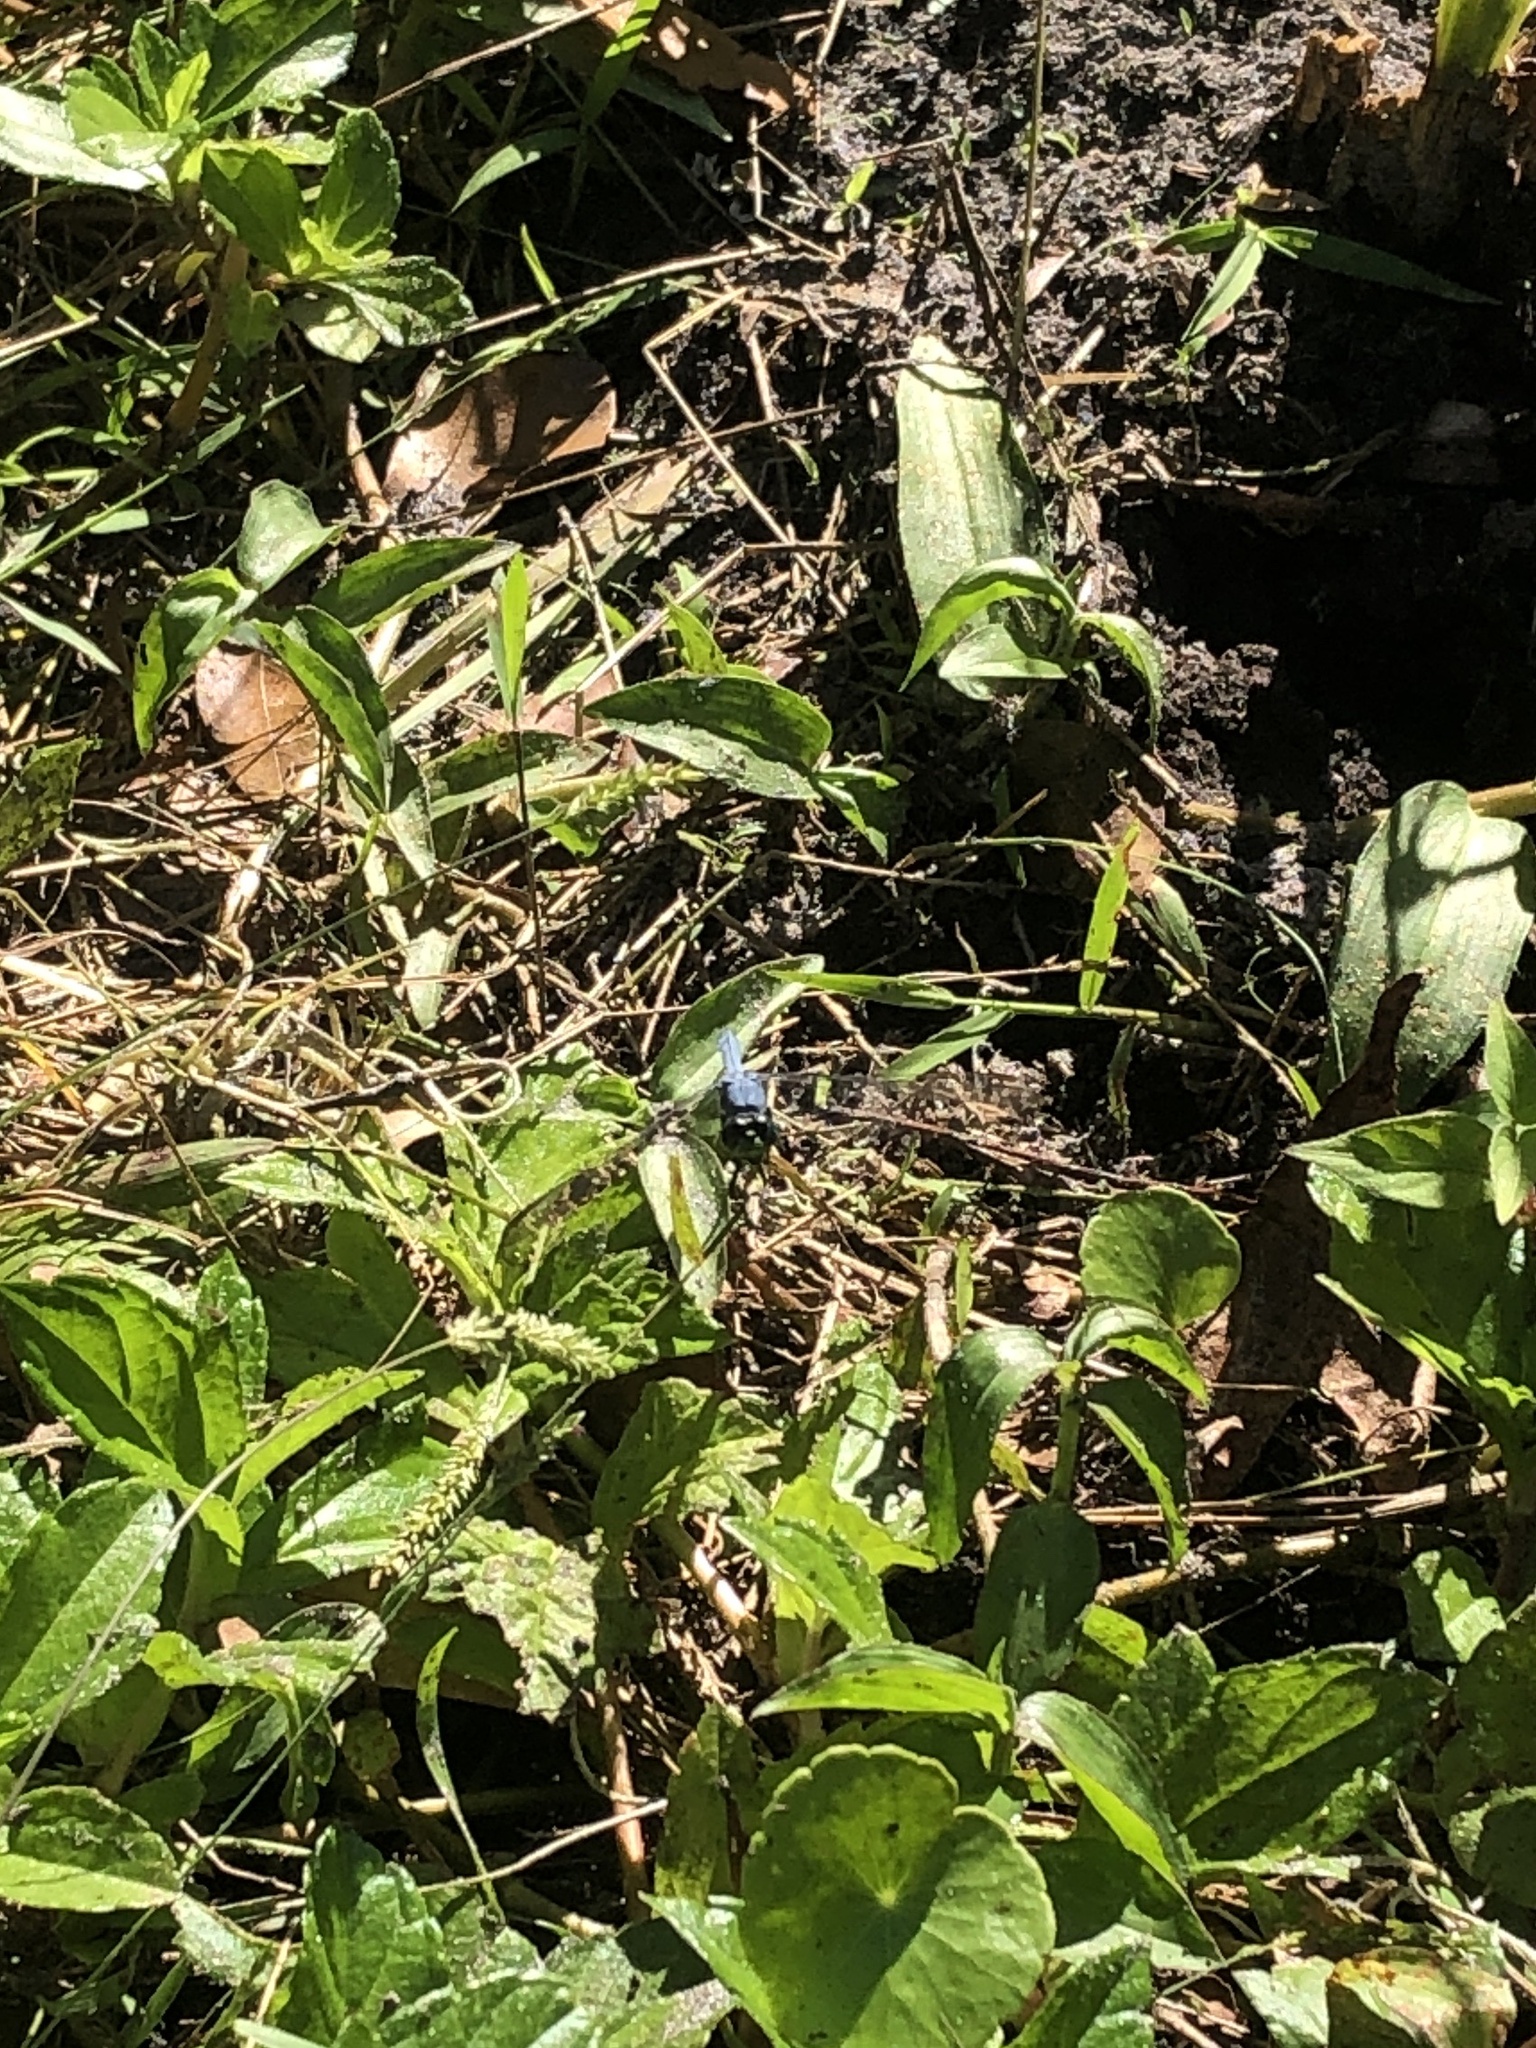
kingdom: Animalia
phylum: Arthropoda
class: Insecta
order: Odonata
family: Libellulidae
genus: Erythemis
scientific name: Erythemis simplicicollis
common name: Eastern pondhawk
